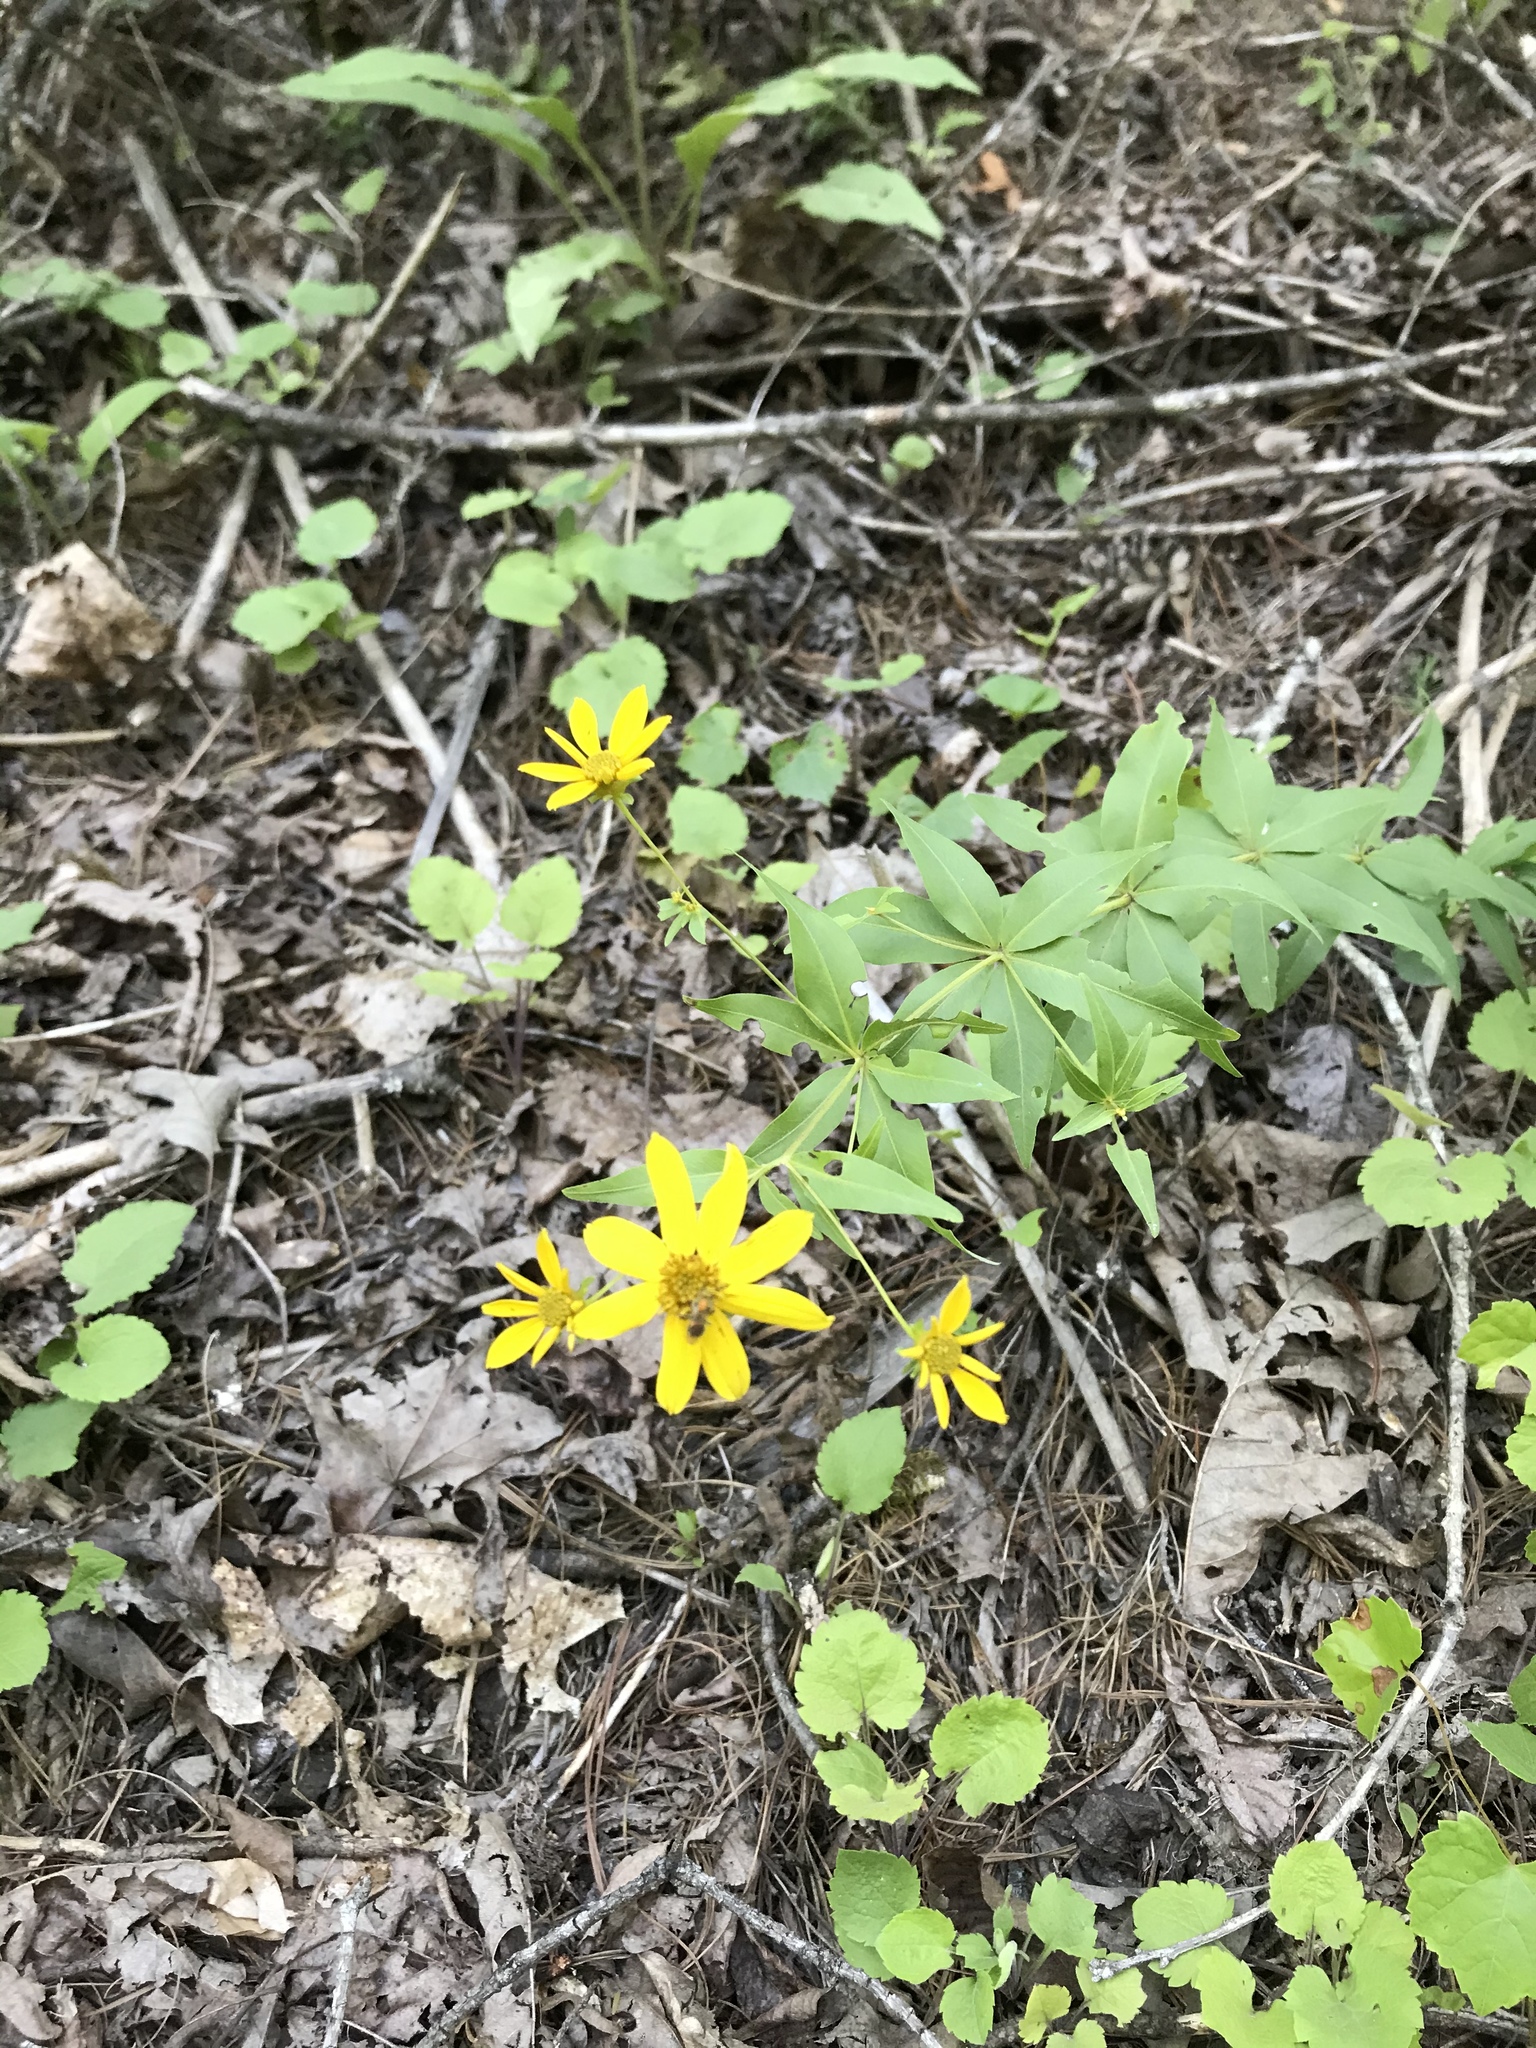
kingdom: Plantae
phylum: Tracheophyta
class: Magnoliopsida
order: Asterales
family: Asteraceae
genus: Coreopsis
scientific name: Coreopsis major
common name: Forest tickseed
